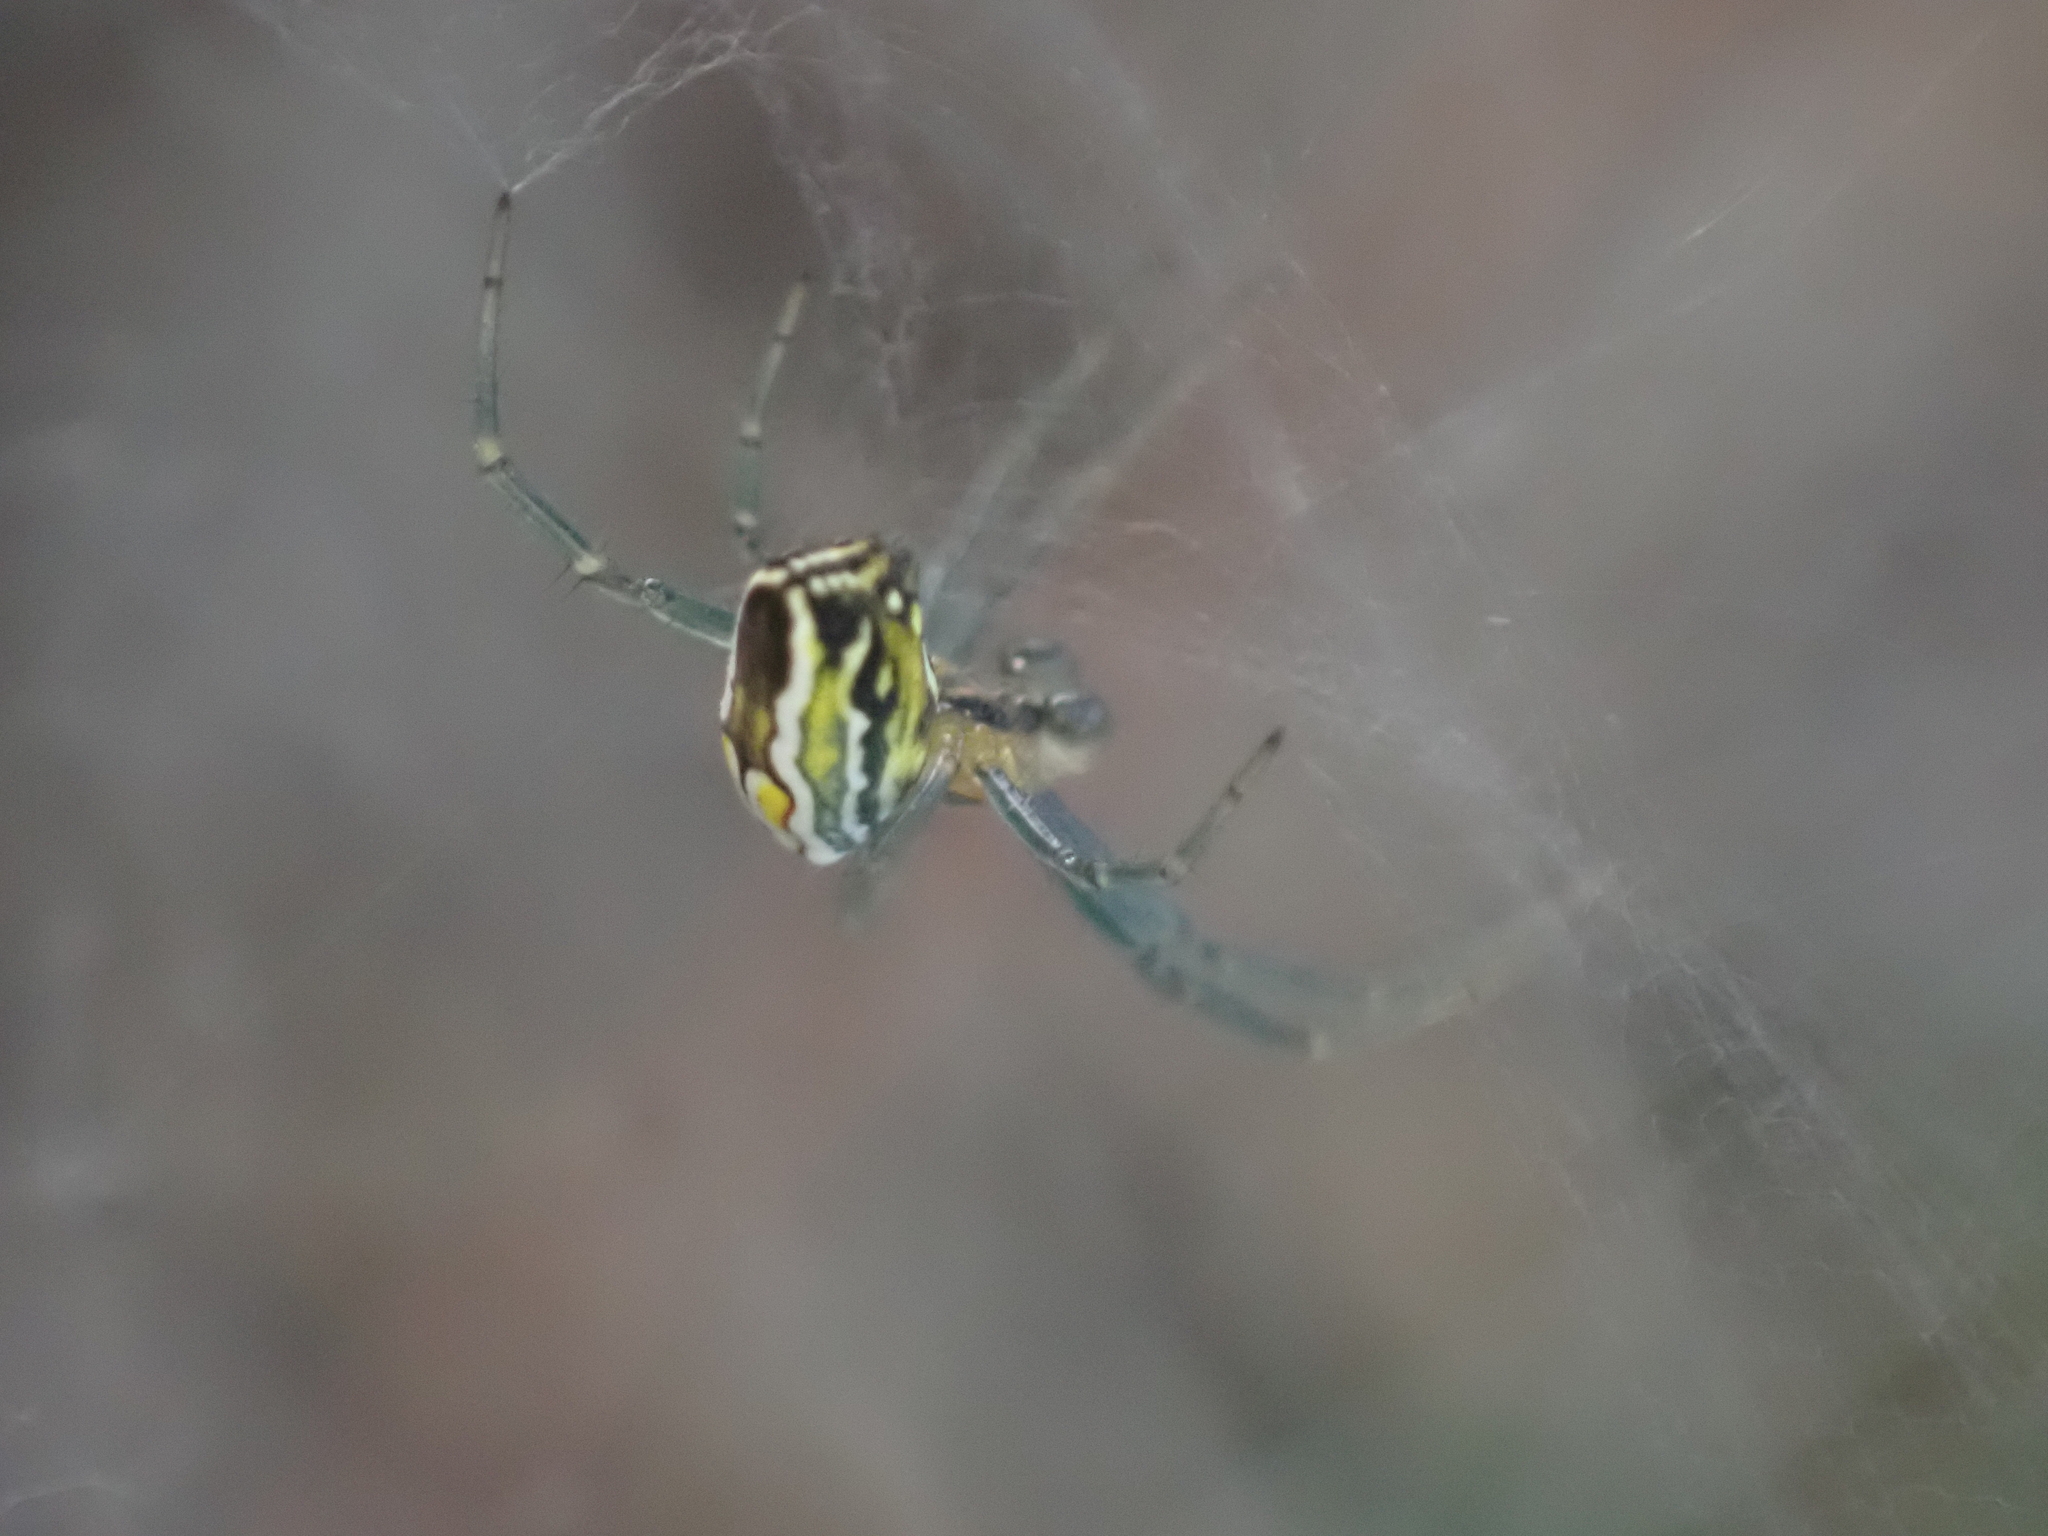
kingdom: Animalia
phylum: Arthropoda
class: Arachnida
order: Araneae
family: Araneidae
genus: Mecynogea
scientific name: Mecynogea lemniscata
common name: Orb weavers
